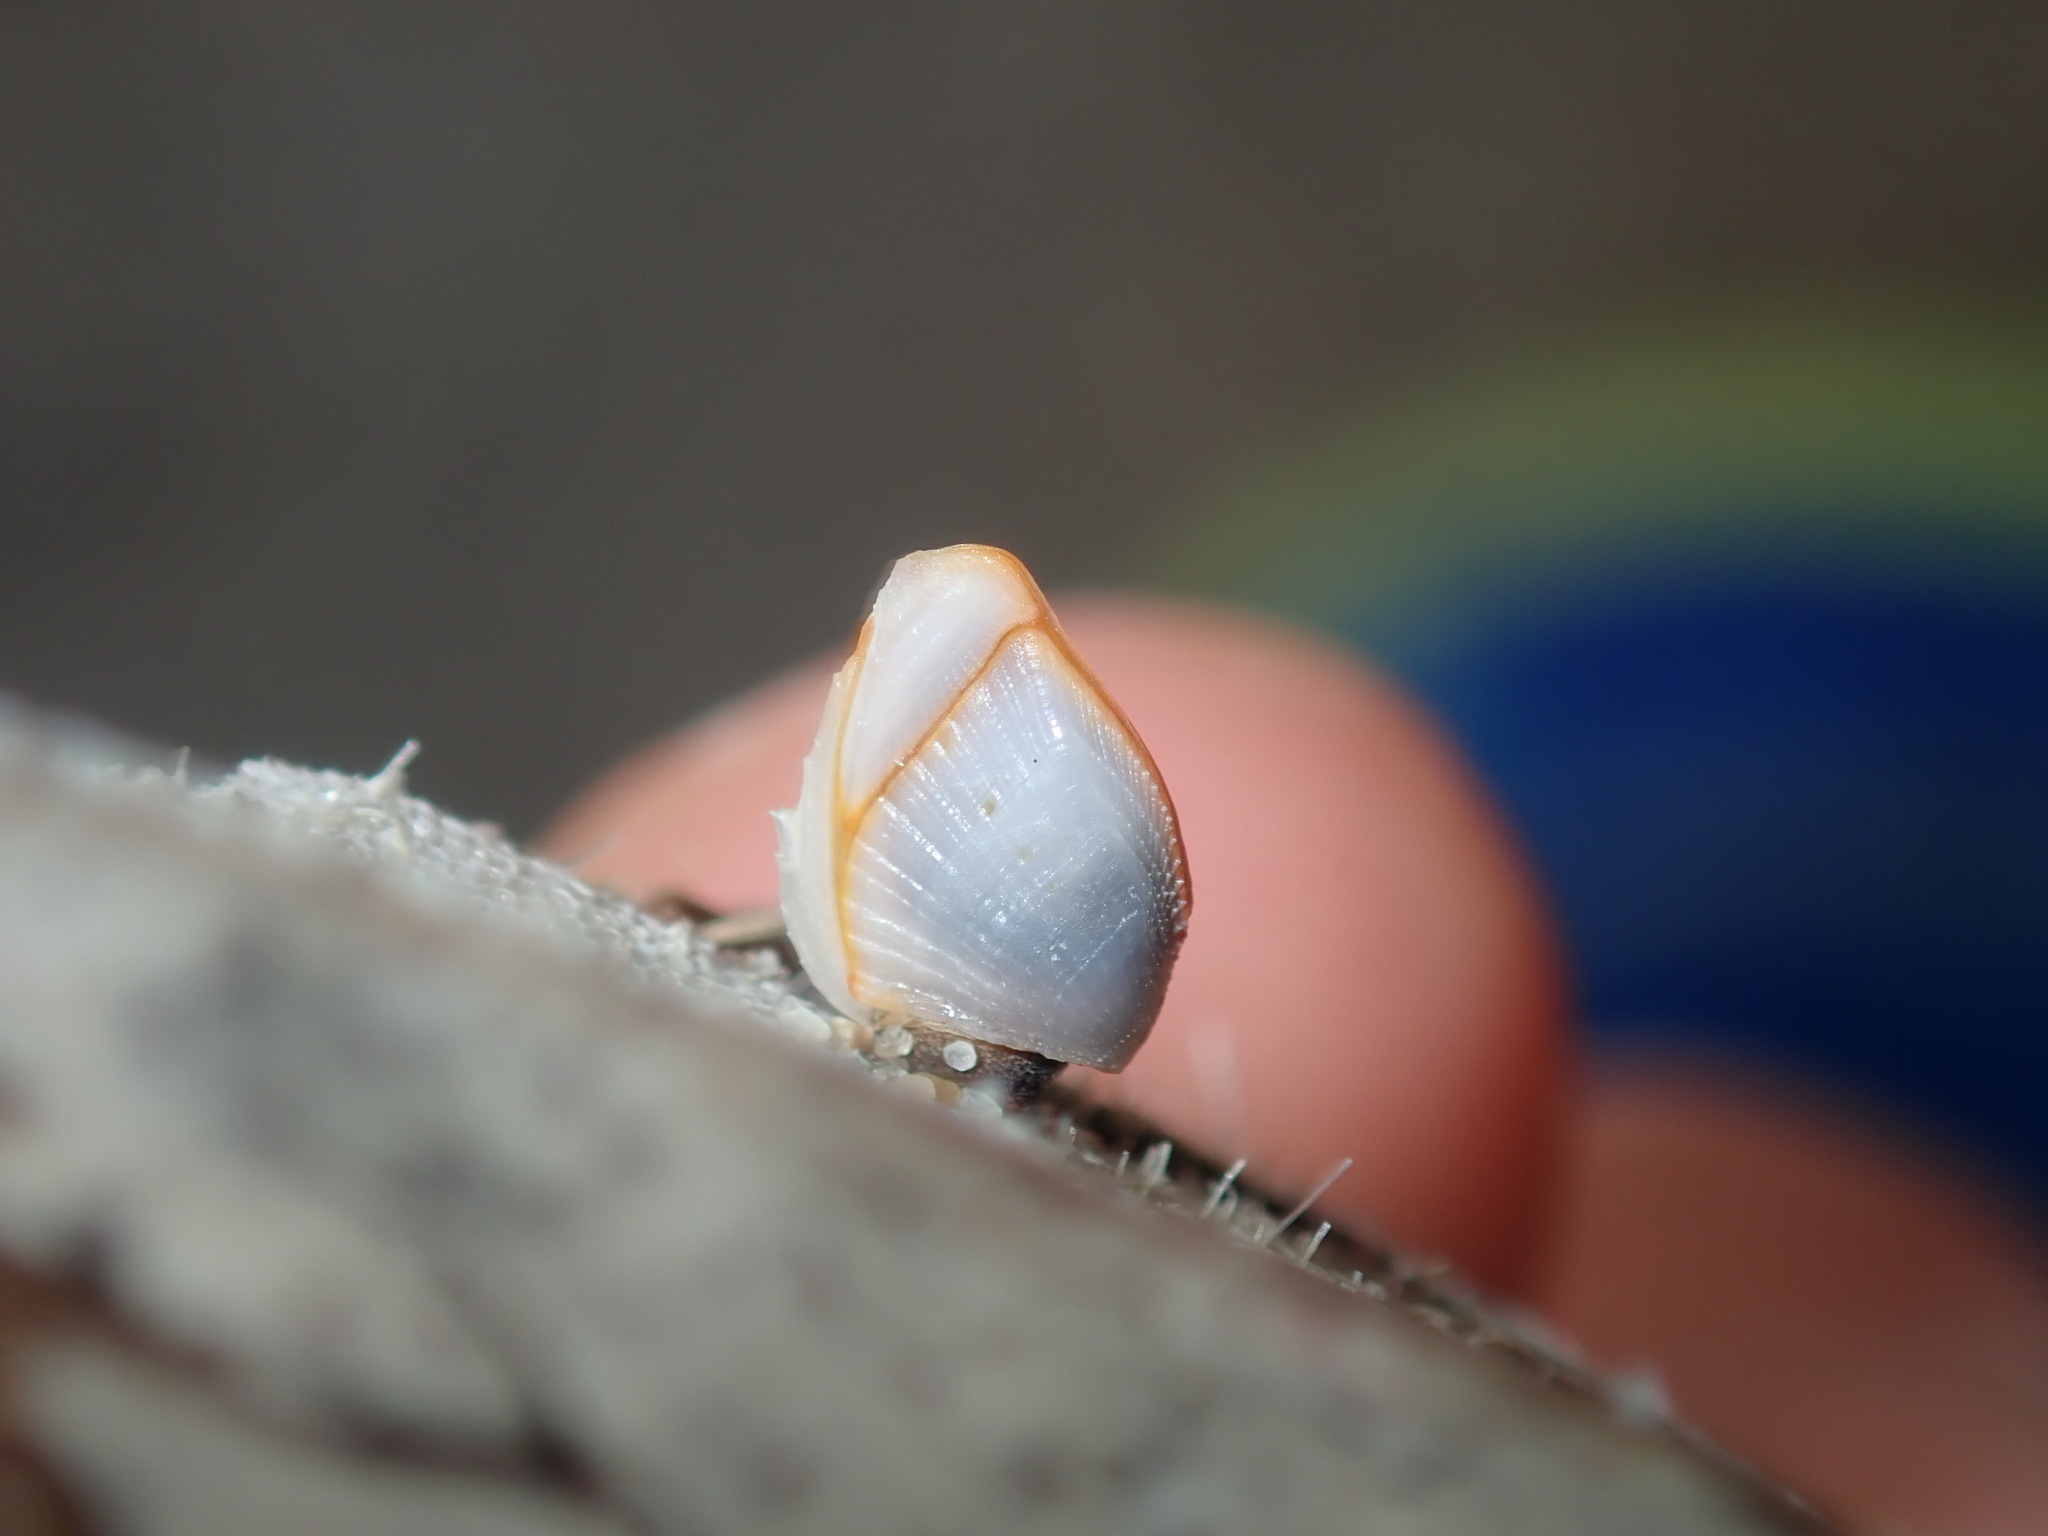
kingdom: Animalia
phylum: Arthropoda
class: Maxillopoda
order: Pedunculata
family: Lepadidae
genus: Lepas
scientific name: Lepas anserifera
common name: Goose barnacle
